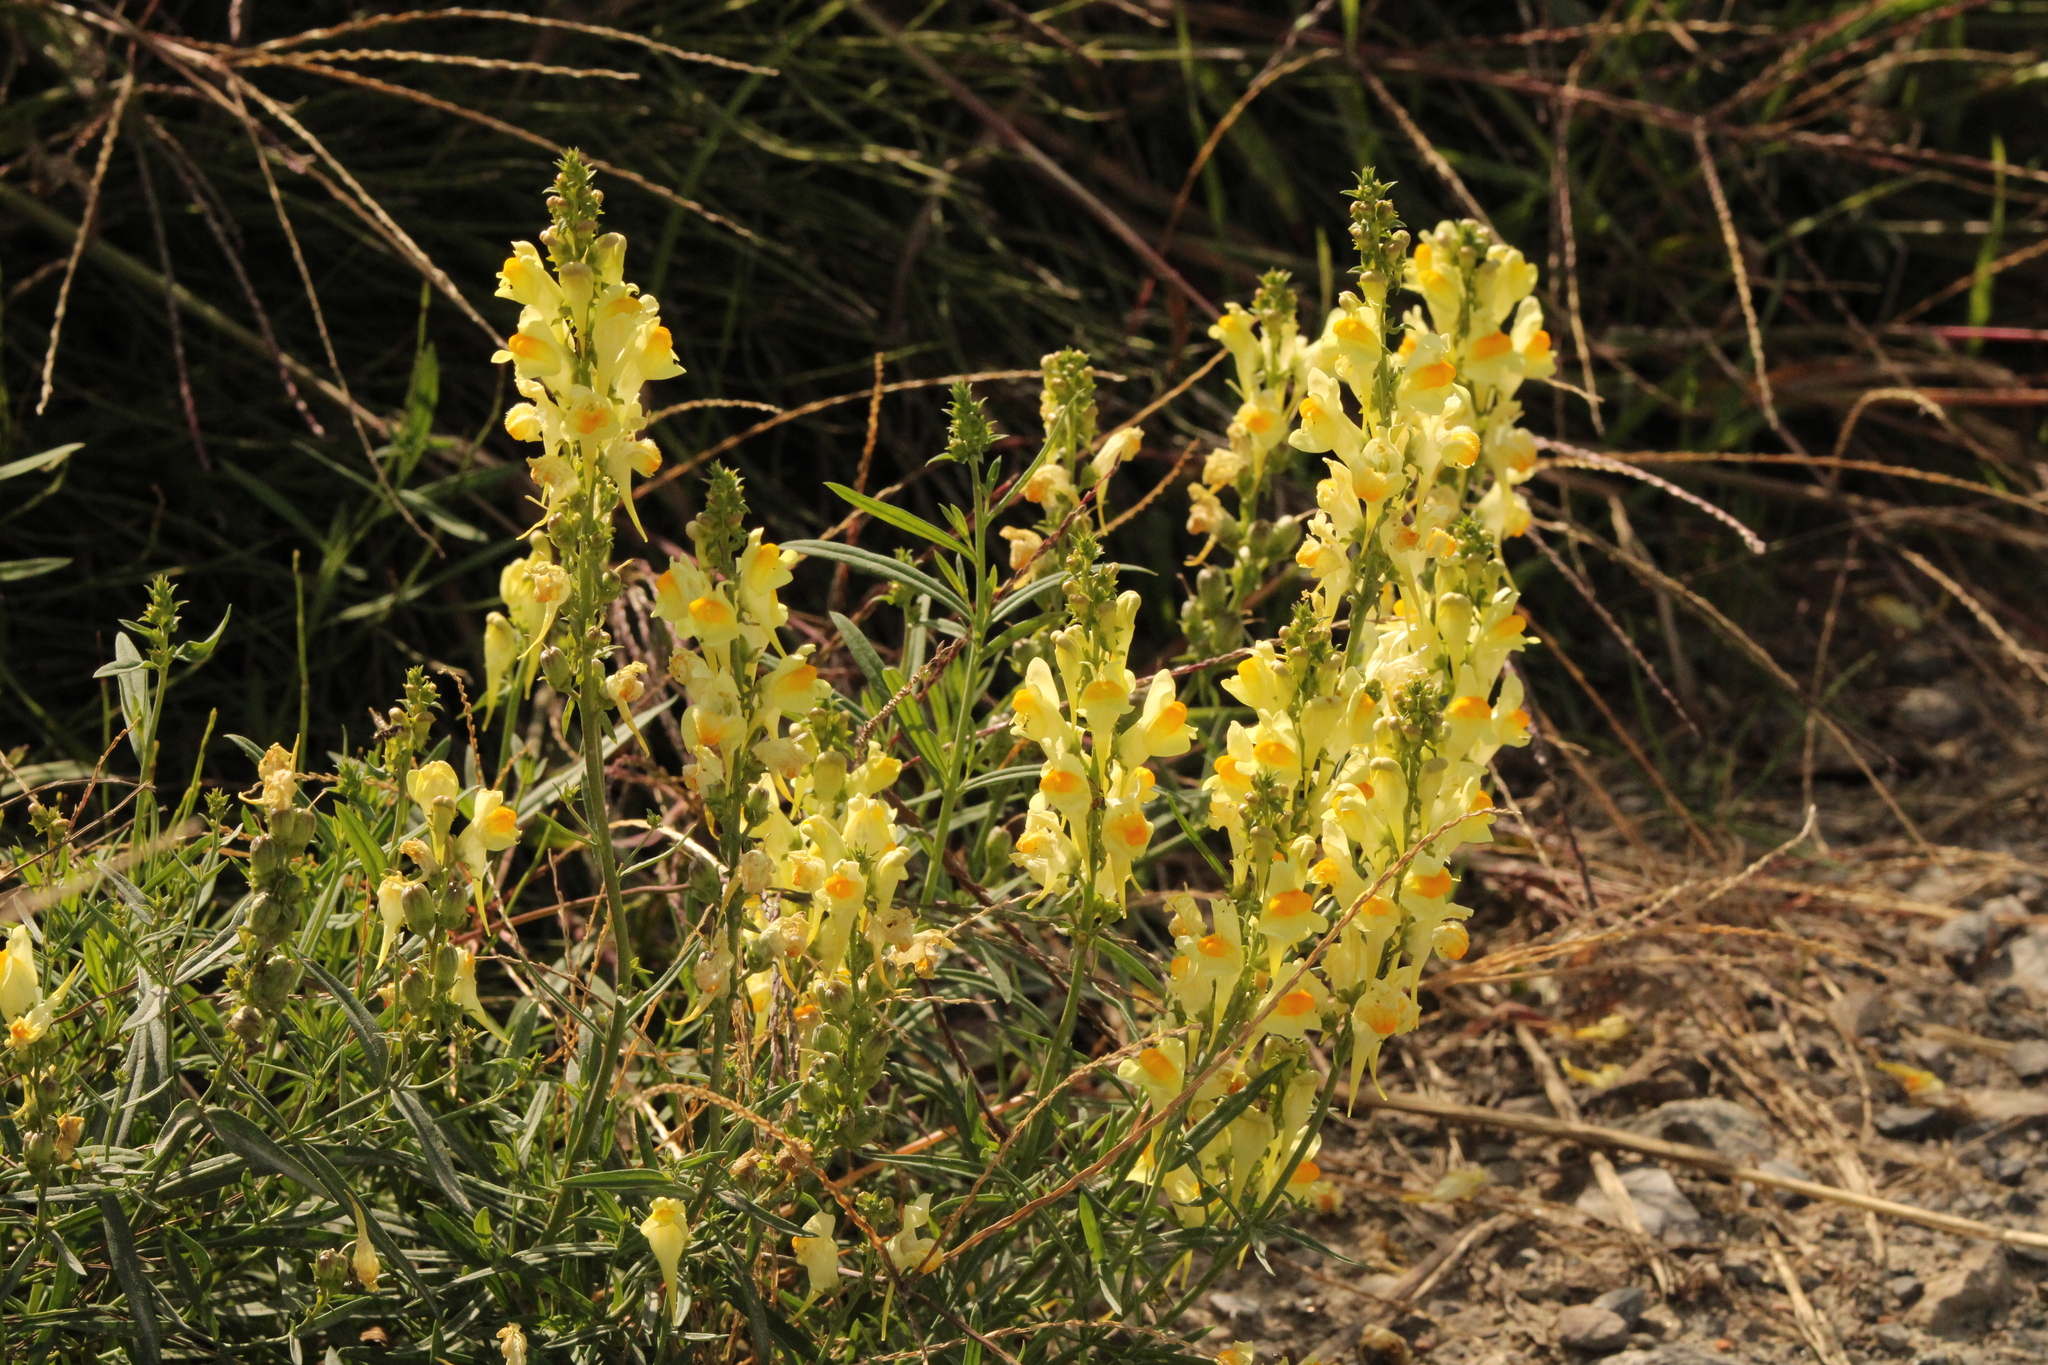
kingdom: Plantae
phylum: Tracheophyta
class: Magnoliopsida
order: Lamiales
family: Plantaginaceae
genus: Linaria
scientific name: Linaria vulgaris
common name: Butter and eggs
